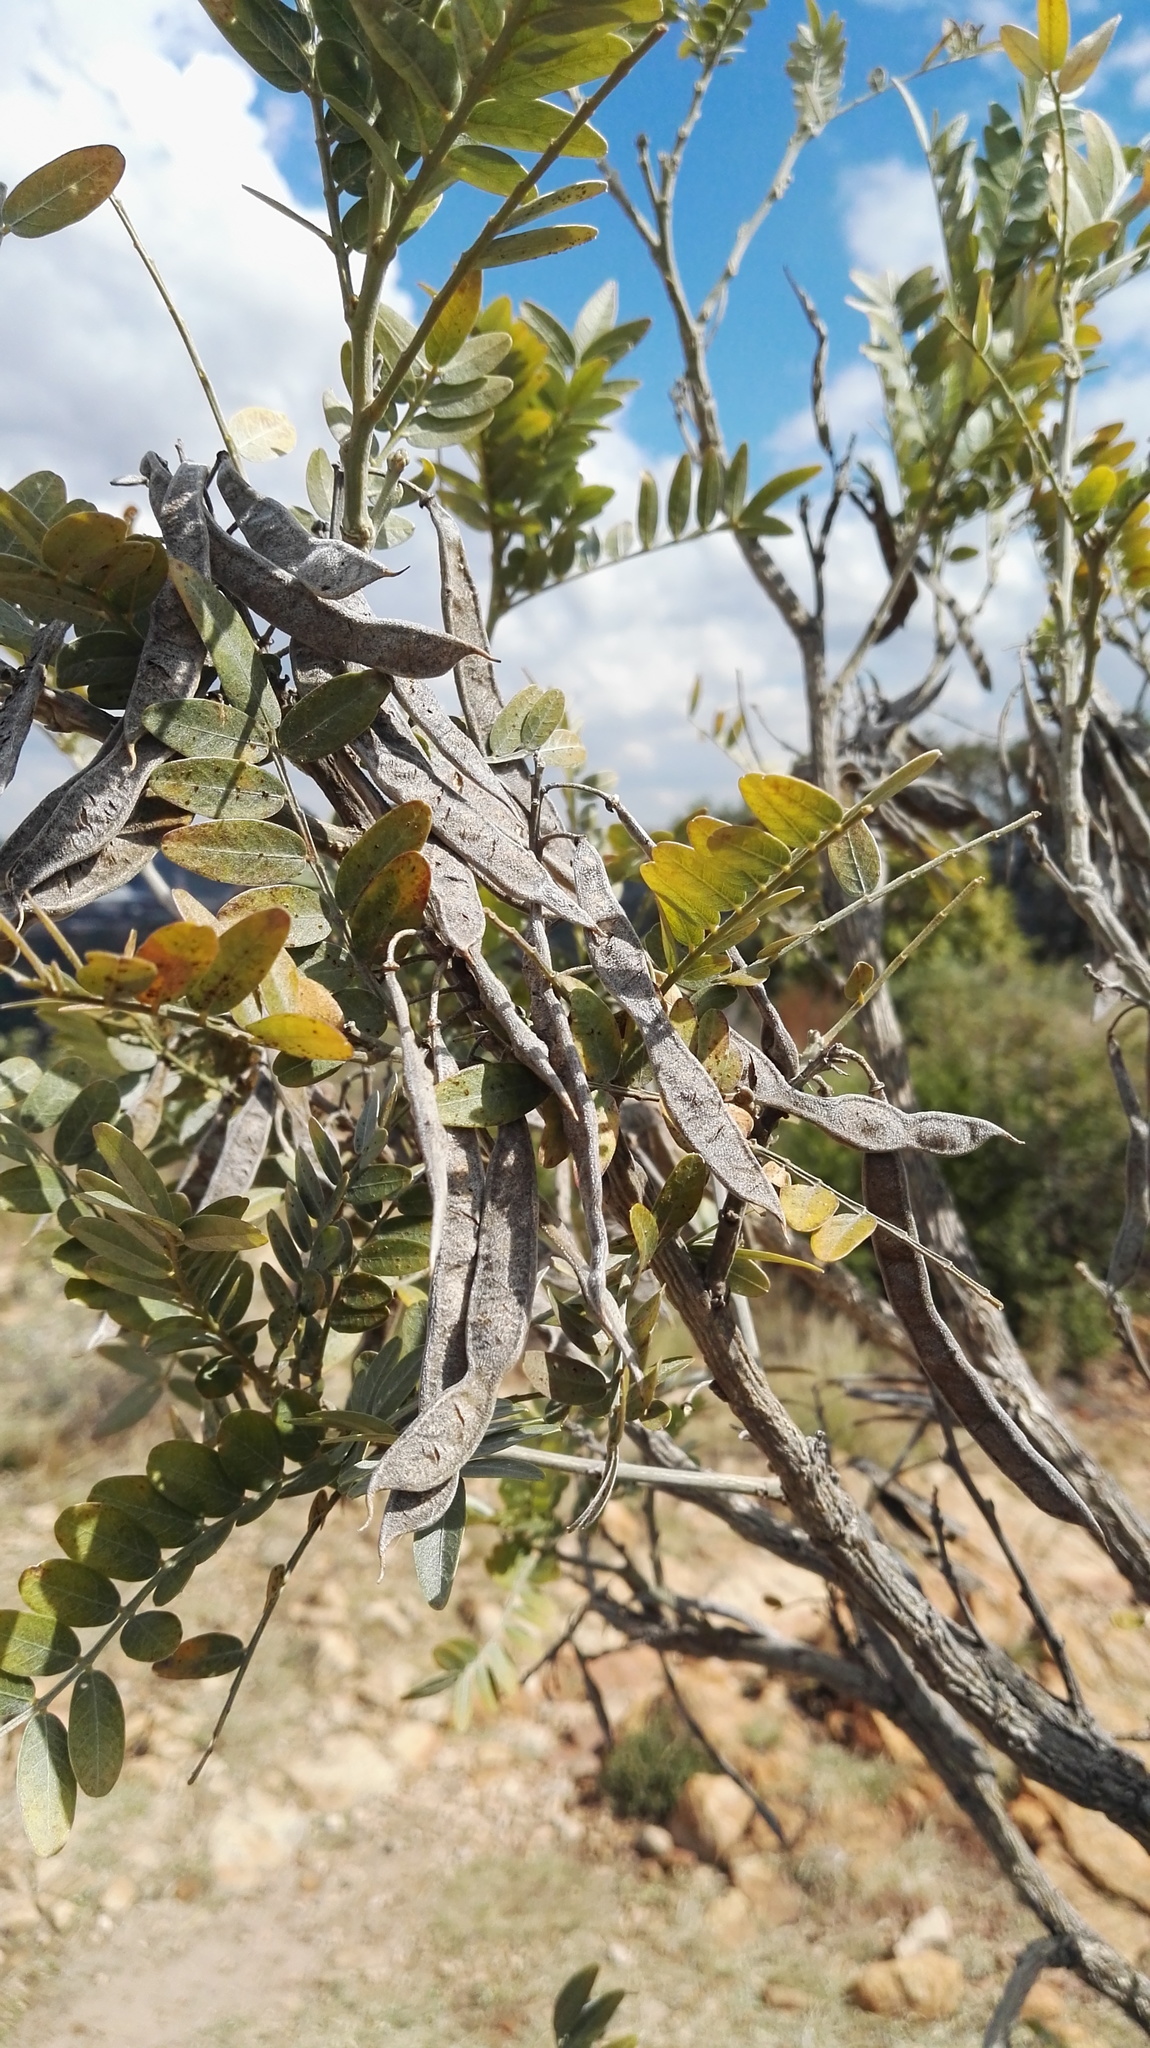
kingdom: Plantae
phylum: Tracheophyta
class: Magnoliopsida
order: Fabales
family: Fabaceae
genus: Mundulea
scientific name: Mundulea sericea
